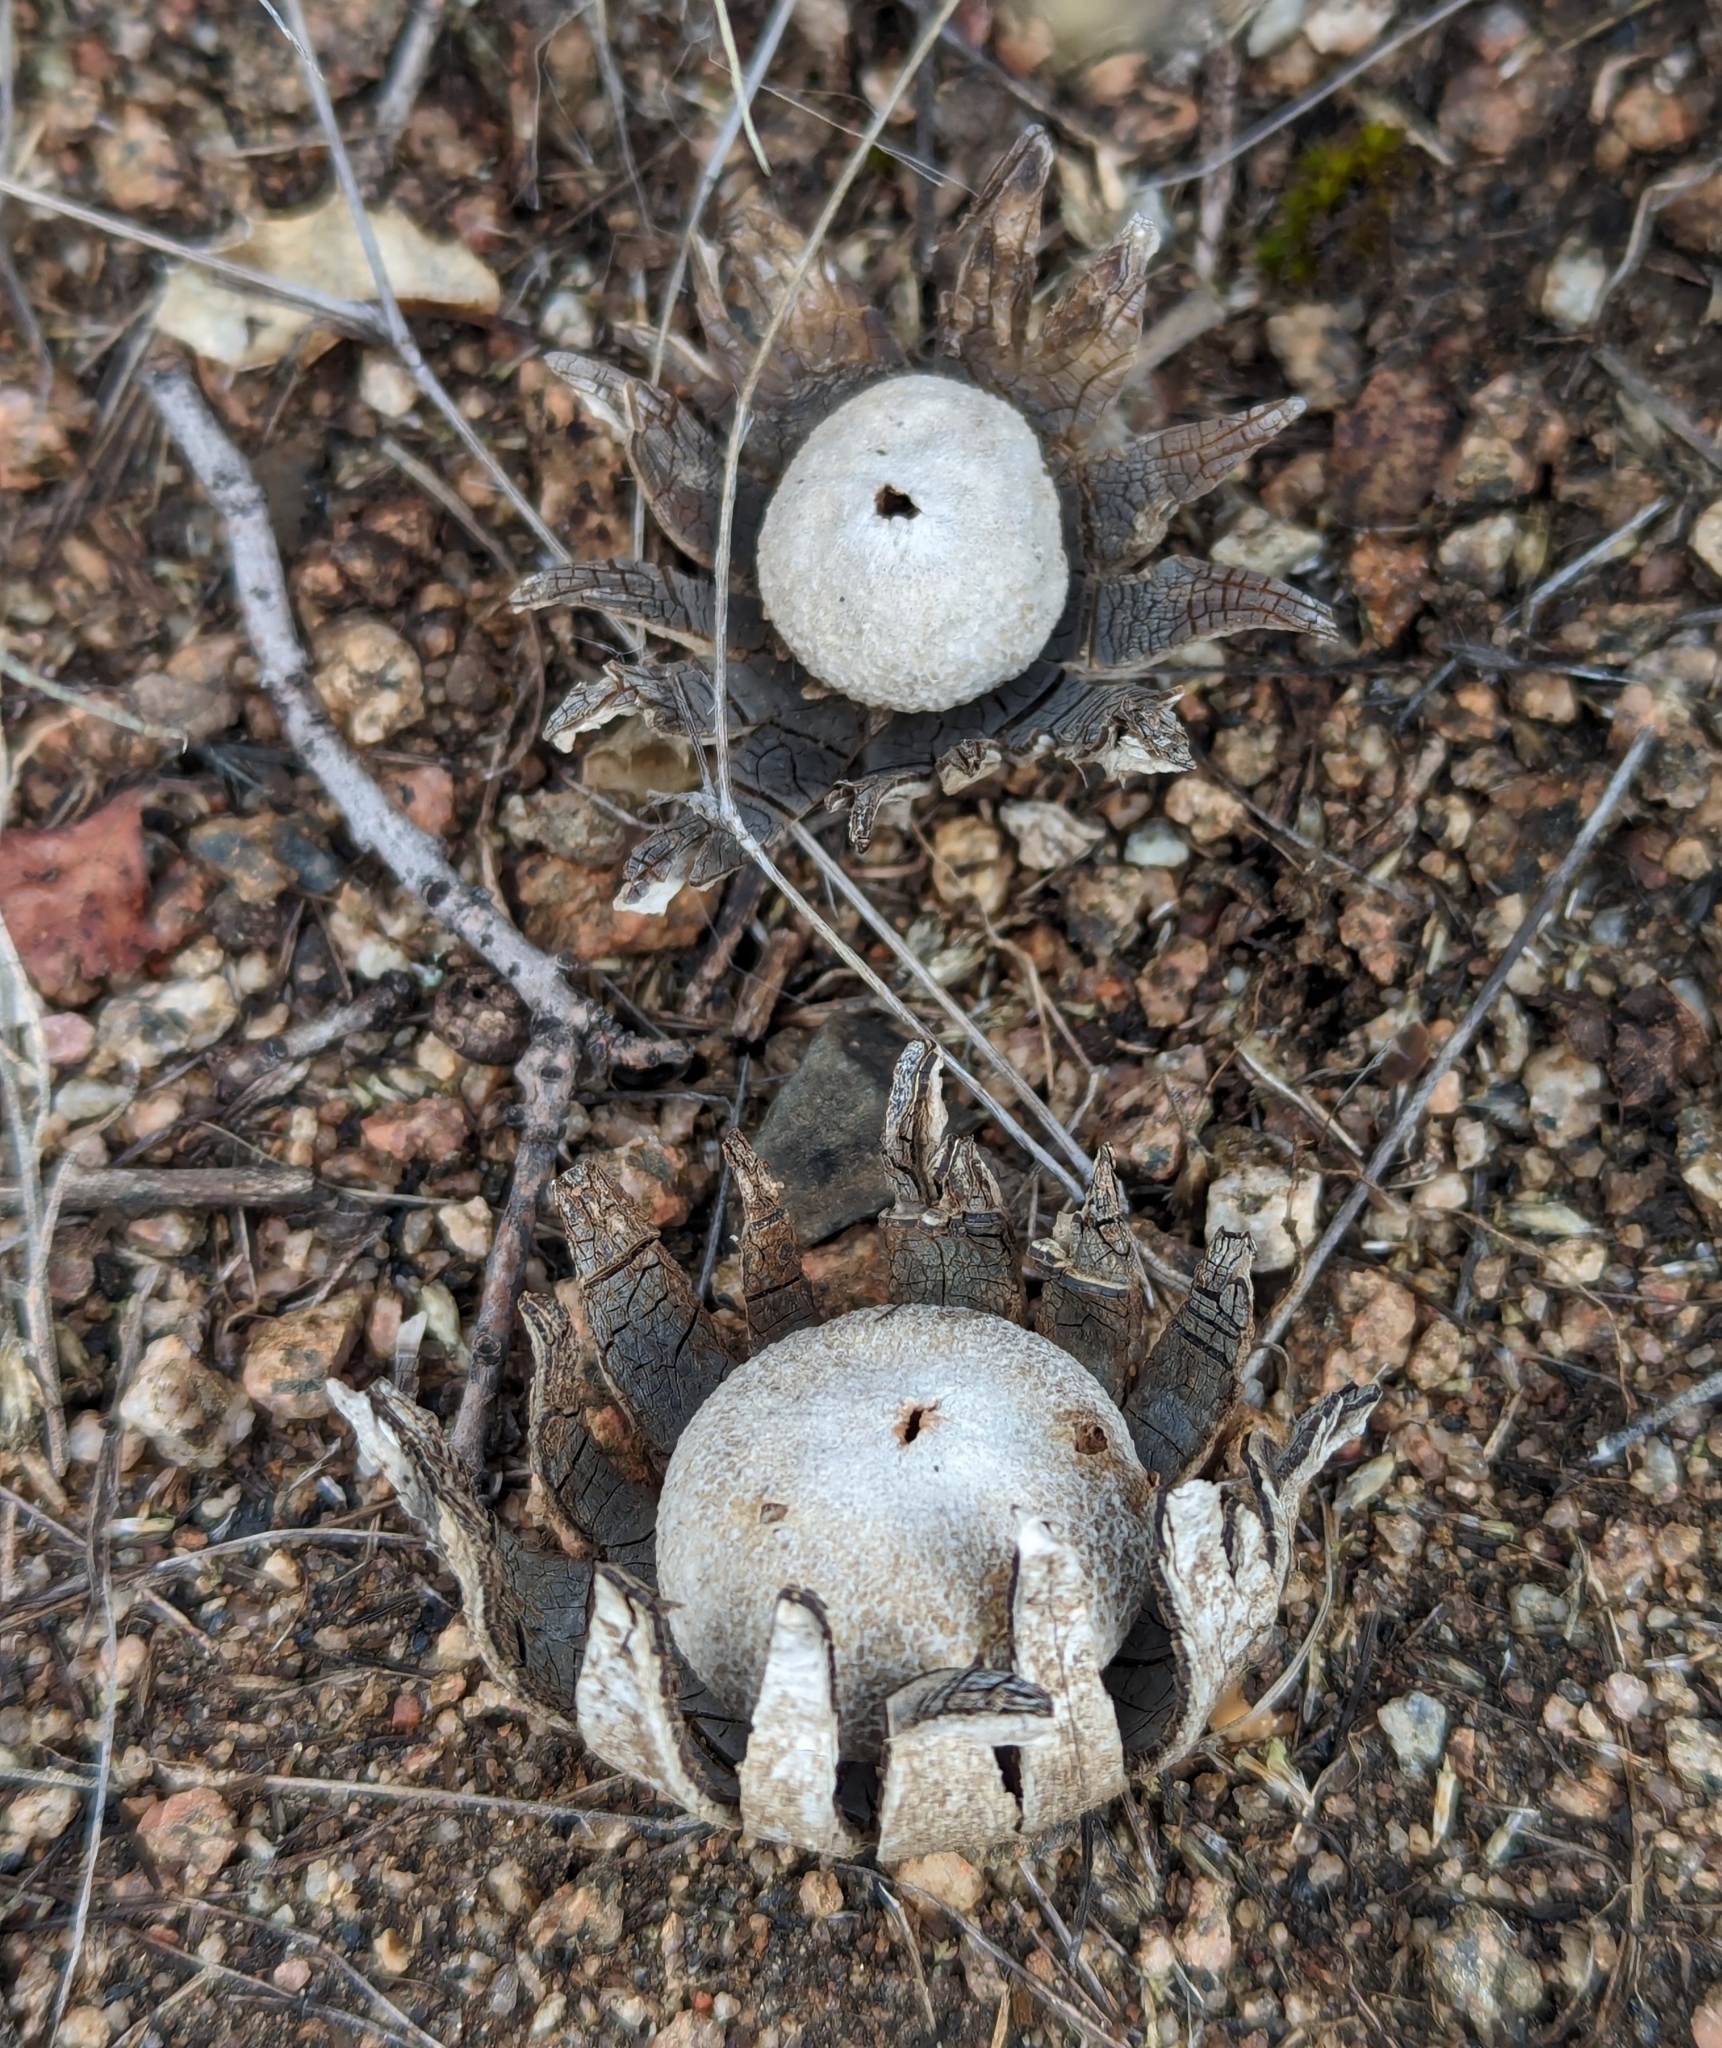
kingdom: Fungi
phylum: Basidiomycota
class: Agaricomycetes
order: Boletales
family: Diplocystidiaceae
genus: Astraeus
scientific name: Astraeus morganii
